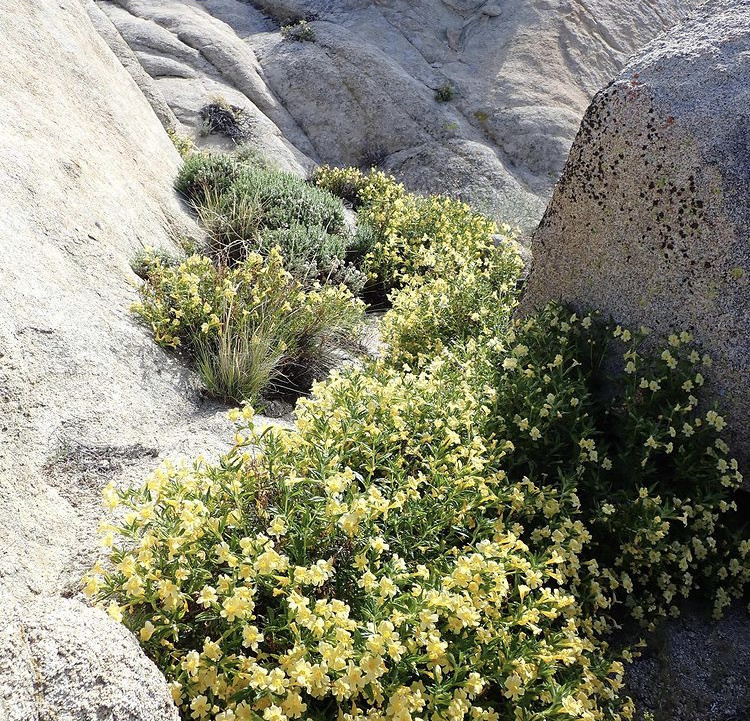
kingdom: Plantae
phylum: Tracheophyta
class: Magnoliopsida
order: Lamiales
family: Phrymaceae
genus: Diplacus
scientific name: Diplacus calycinus
